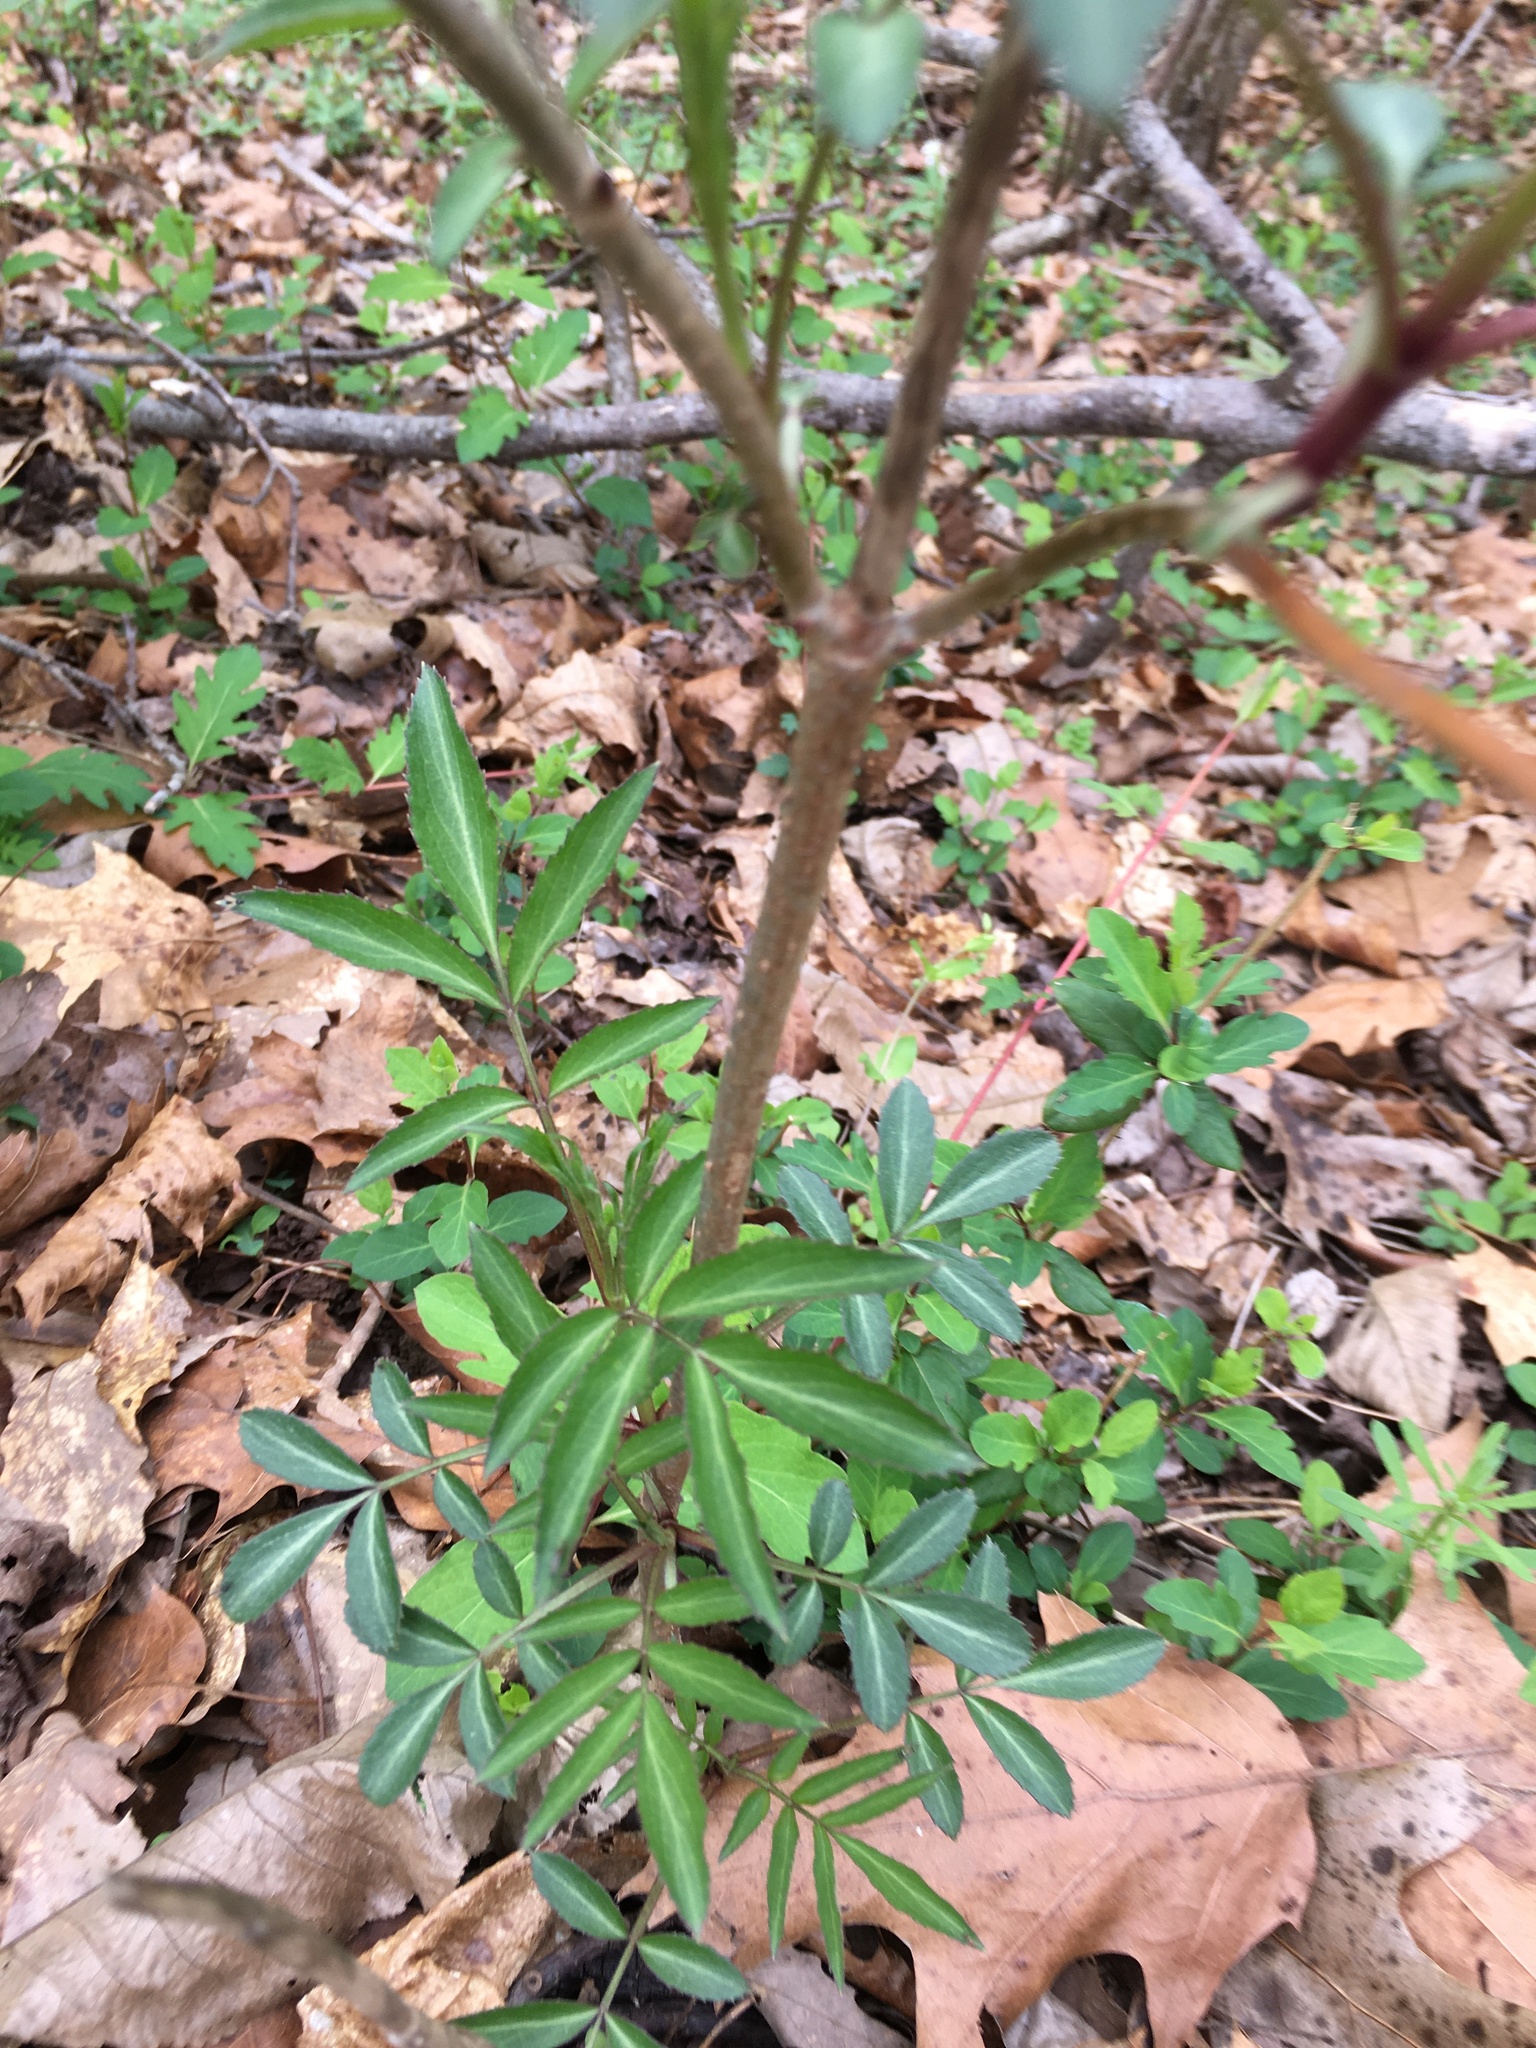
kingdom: Plantae
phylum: Tracheophyta
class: Magnoliopsida
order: Dipsacales
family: Viburnaceae
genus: Sambucus
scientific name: Sambucus canadensis
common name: American elder
